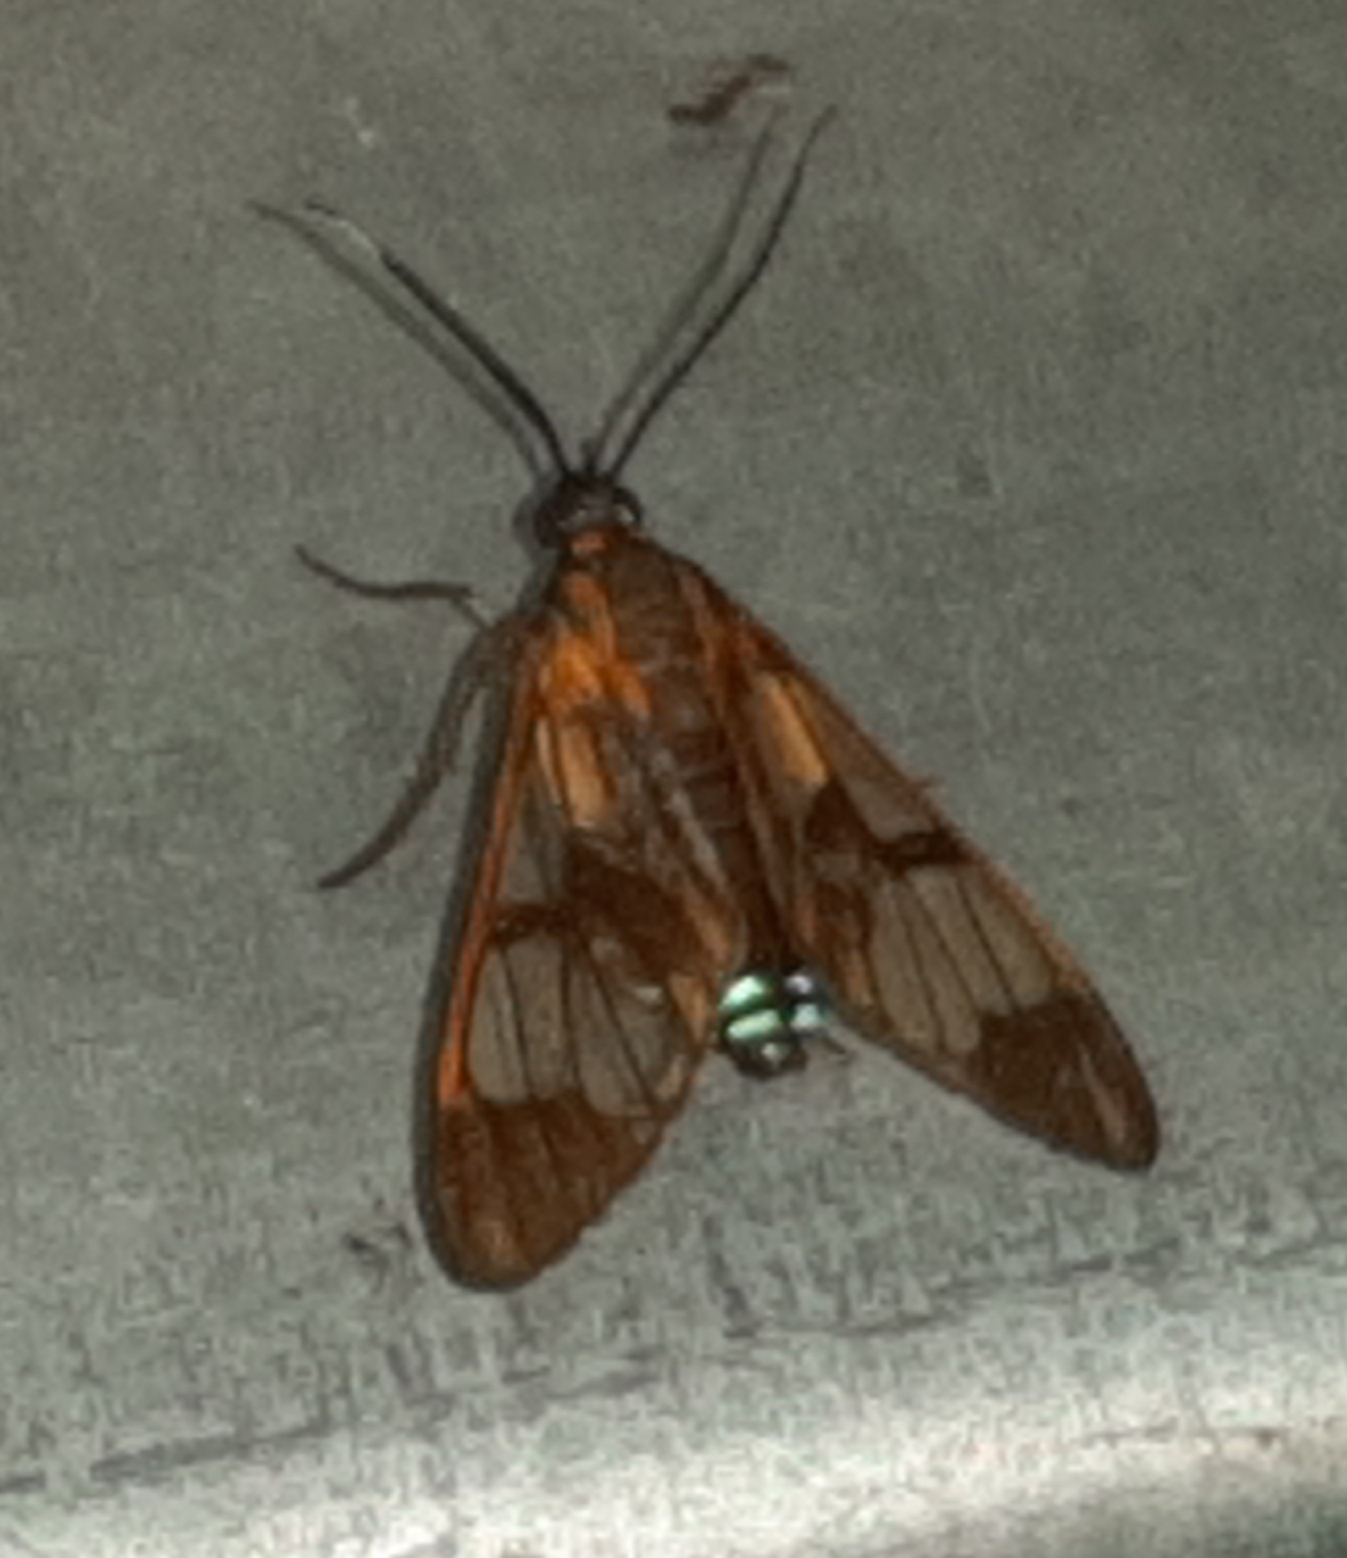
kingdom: Animalia
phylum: Arthropoda
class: Insecta
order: Lepidoptera
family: Erebidae
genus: Cosmosoma
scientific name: Cosmosoma festivum
